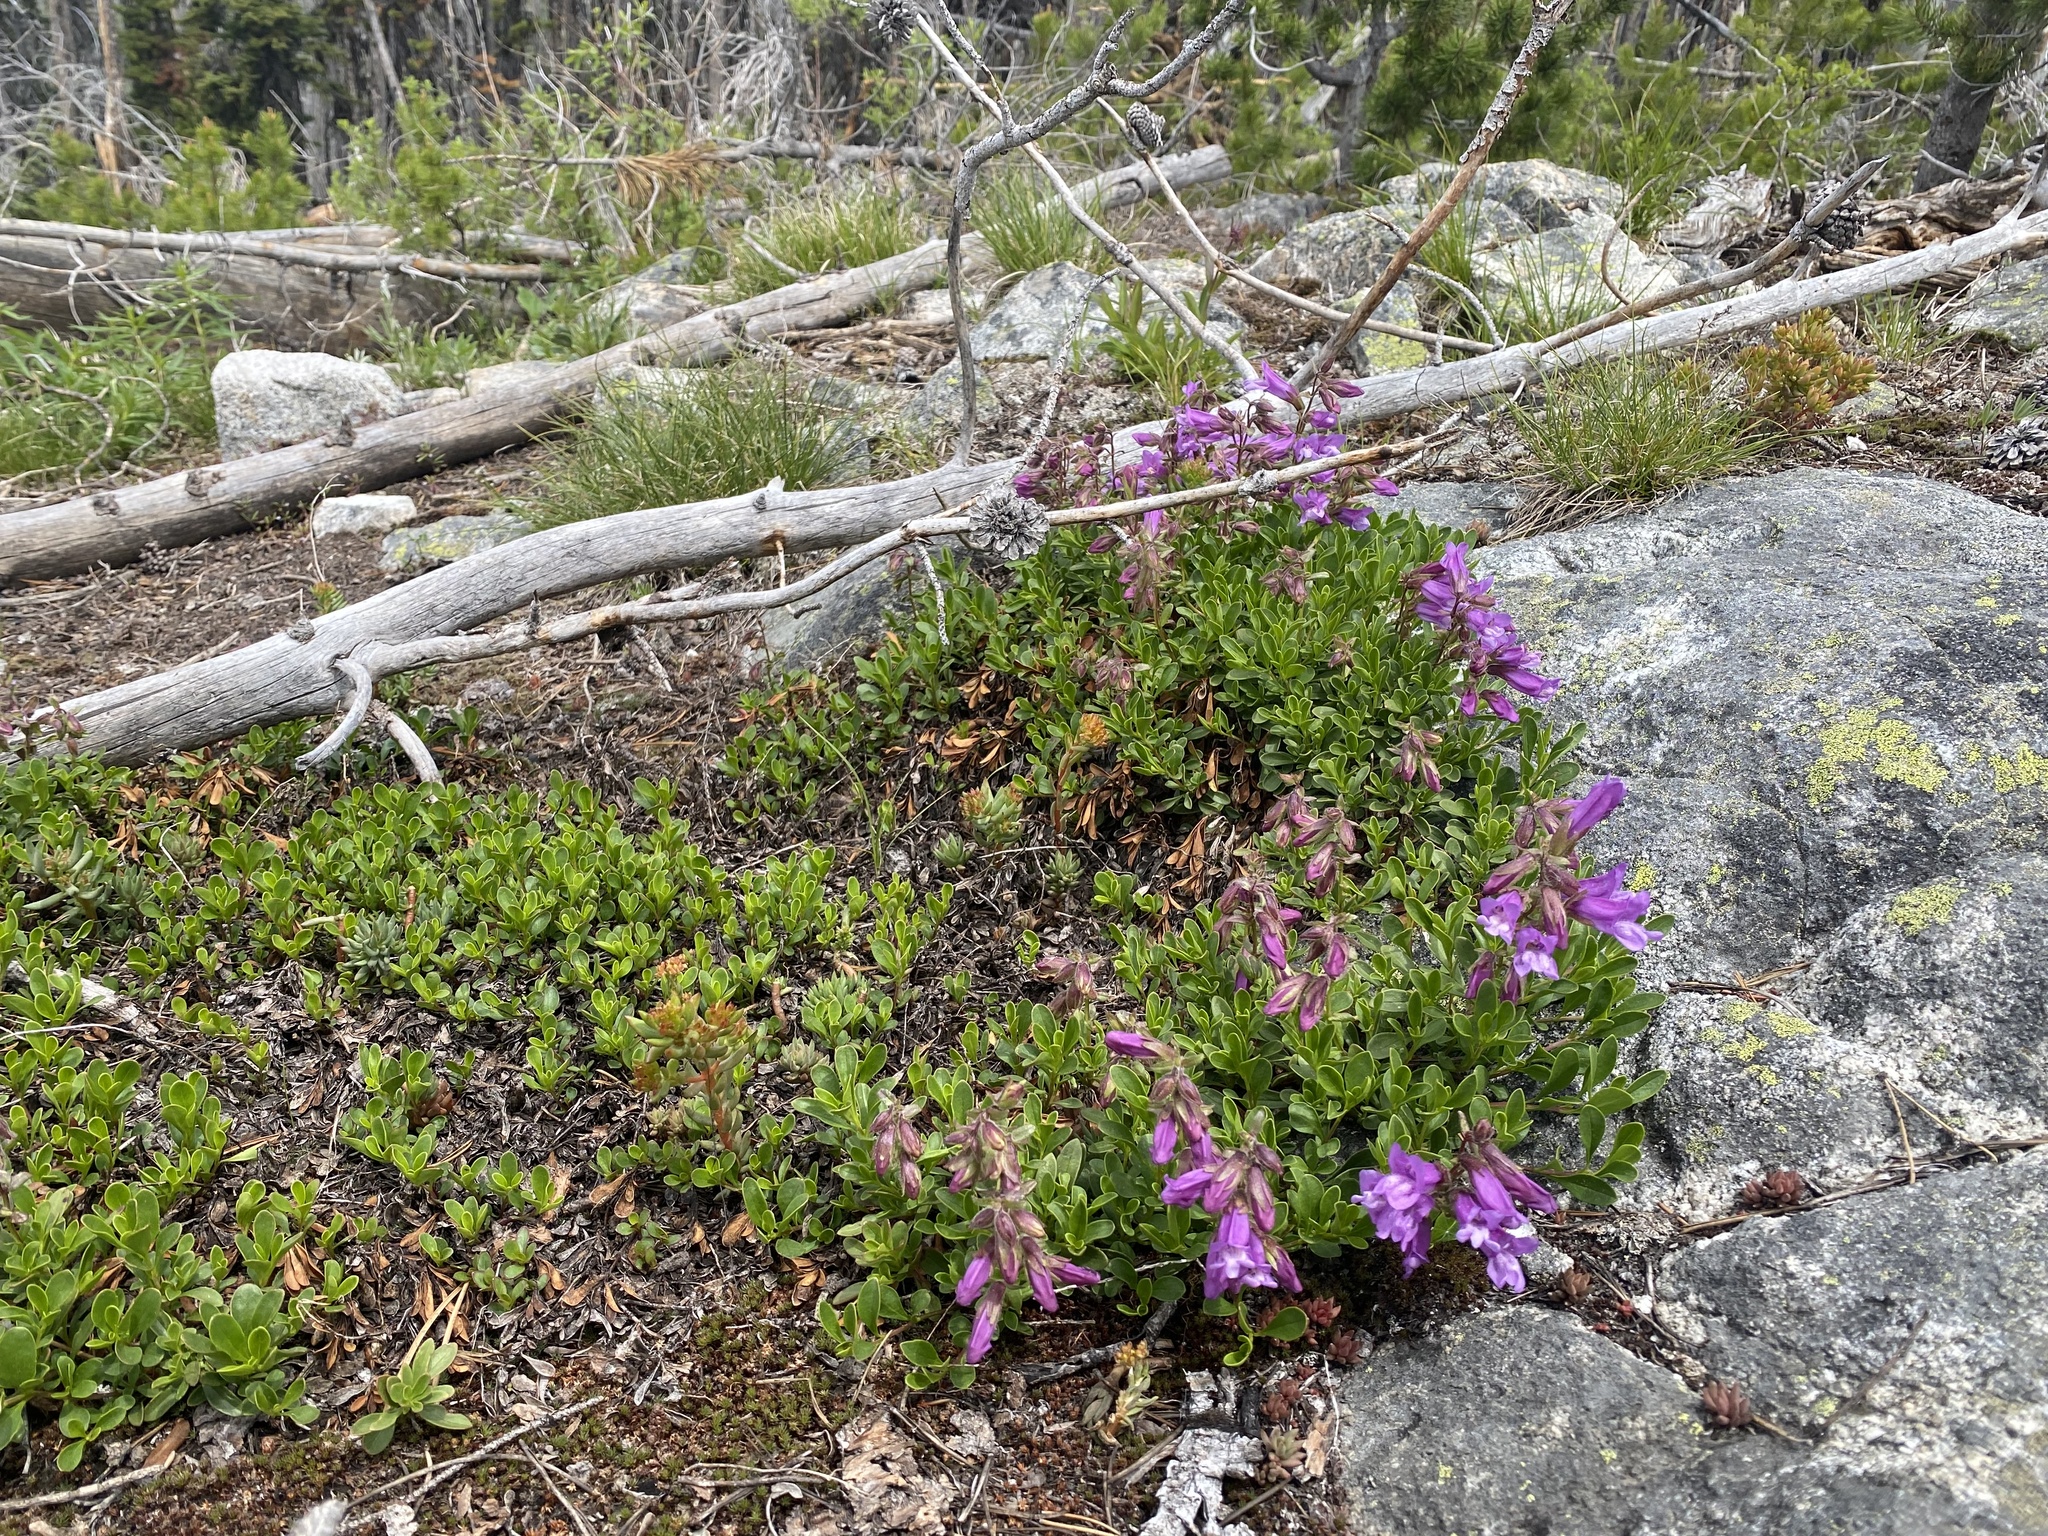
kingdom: Plantae
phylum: Tracheophyta
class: Magnoliopsida
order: Lamiales
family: Plantaginaceae
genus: Penstemon
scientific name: Penstemon davidsonii
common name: Davidson's penstemon
